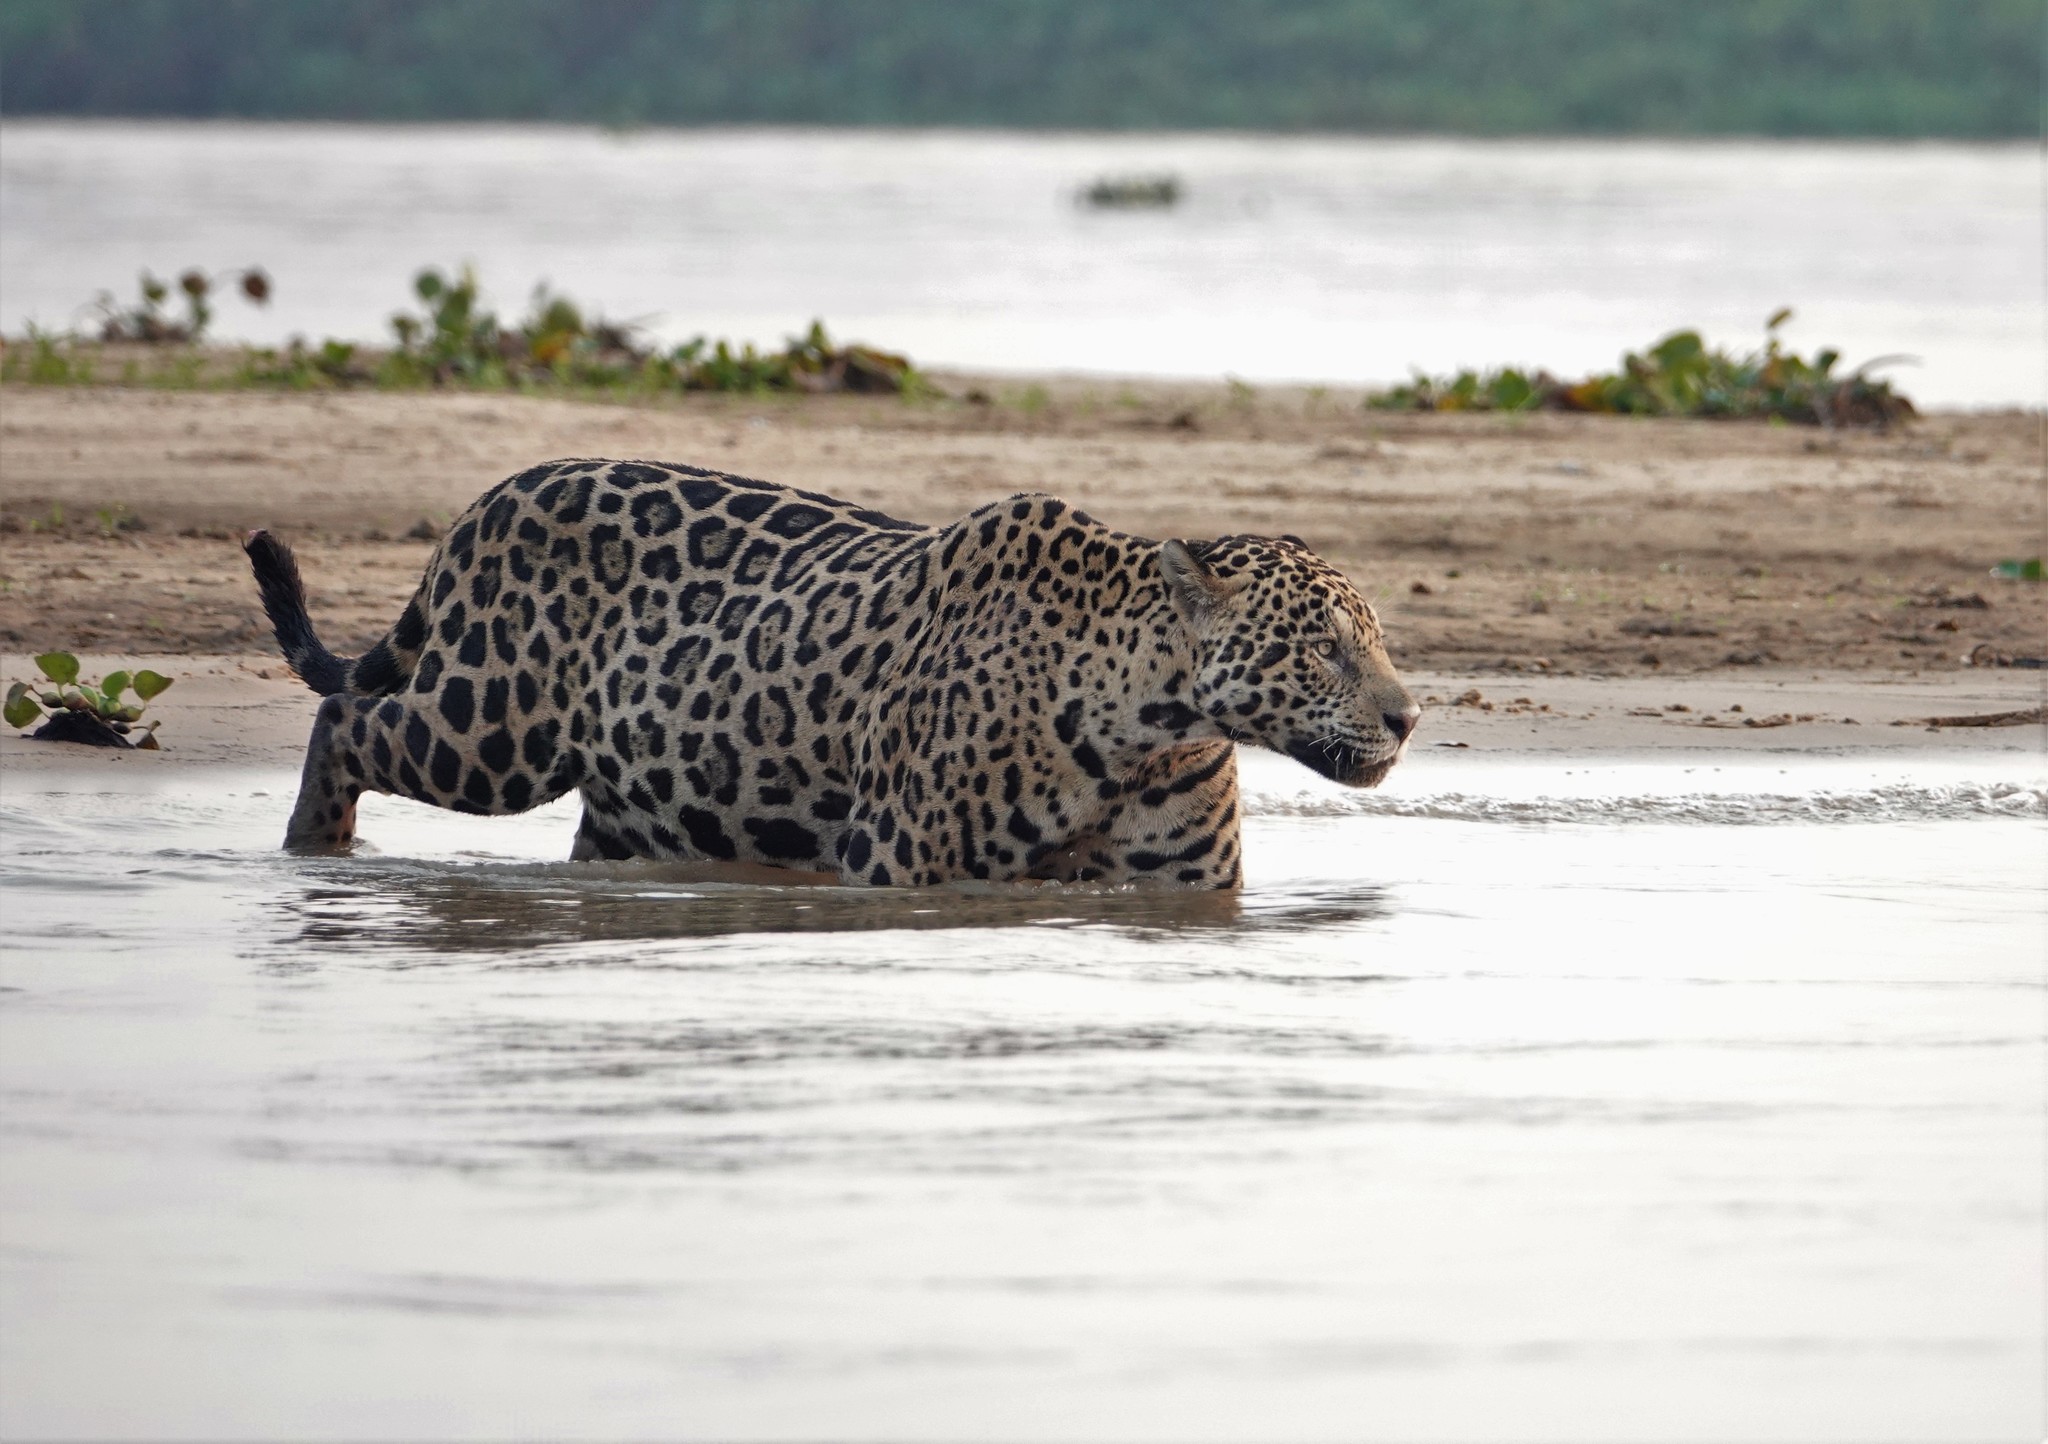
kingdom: Animalia
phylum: Chordata
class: Mammalia
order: Carnivora
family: Felidae
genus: Panthera
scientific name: Panthera onca
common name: Jaguar
